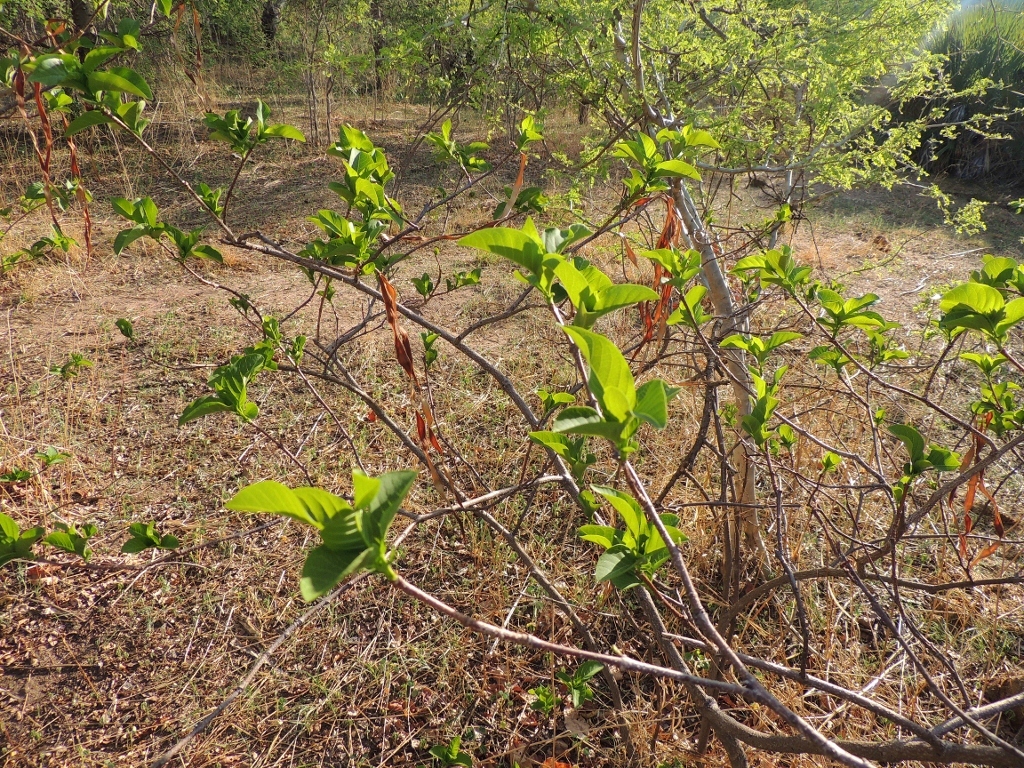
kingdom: Plantae
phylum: Tracheophyta
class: Magnoliopsida
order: Gentianales
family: Apocynaceae
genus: Holarrhena
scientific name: Holarrhena pubescens
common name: Bitter oleander
